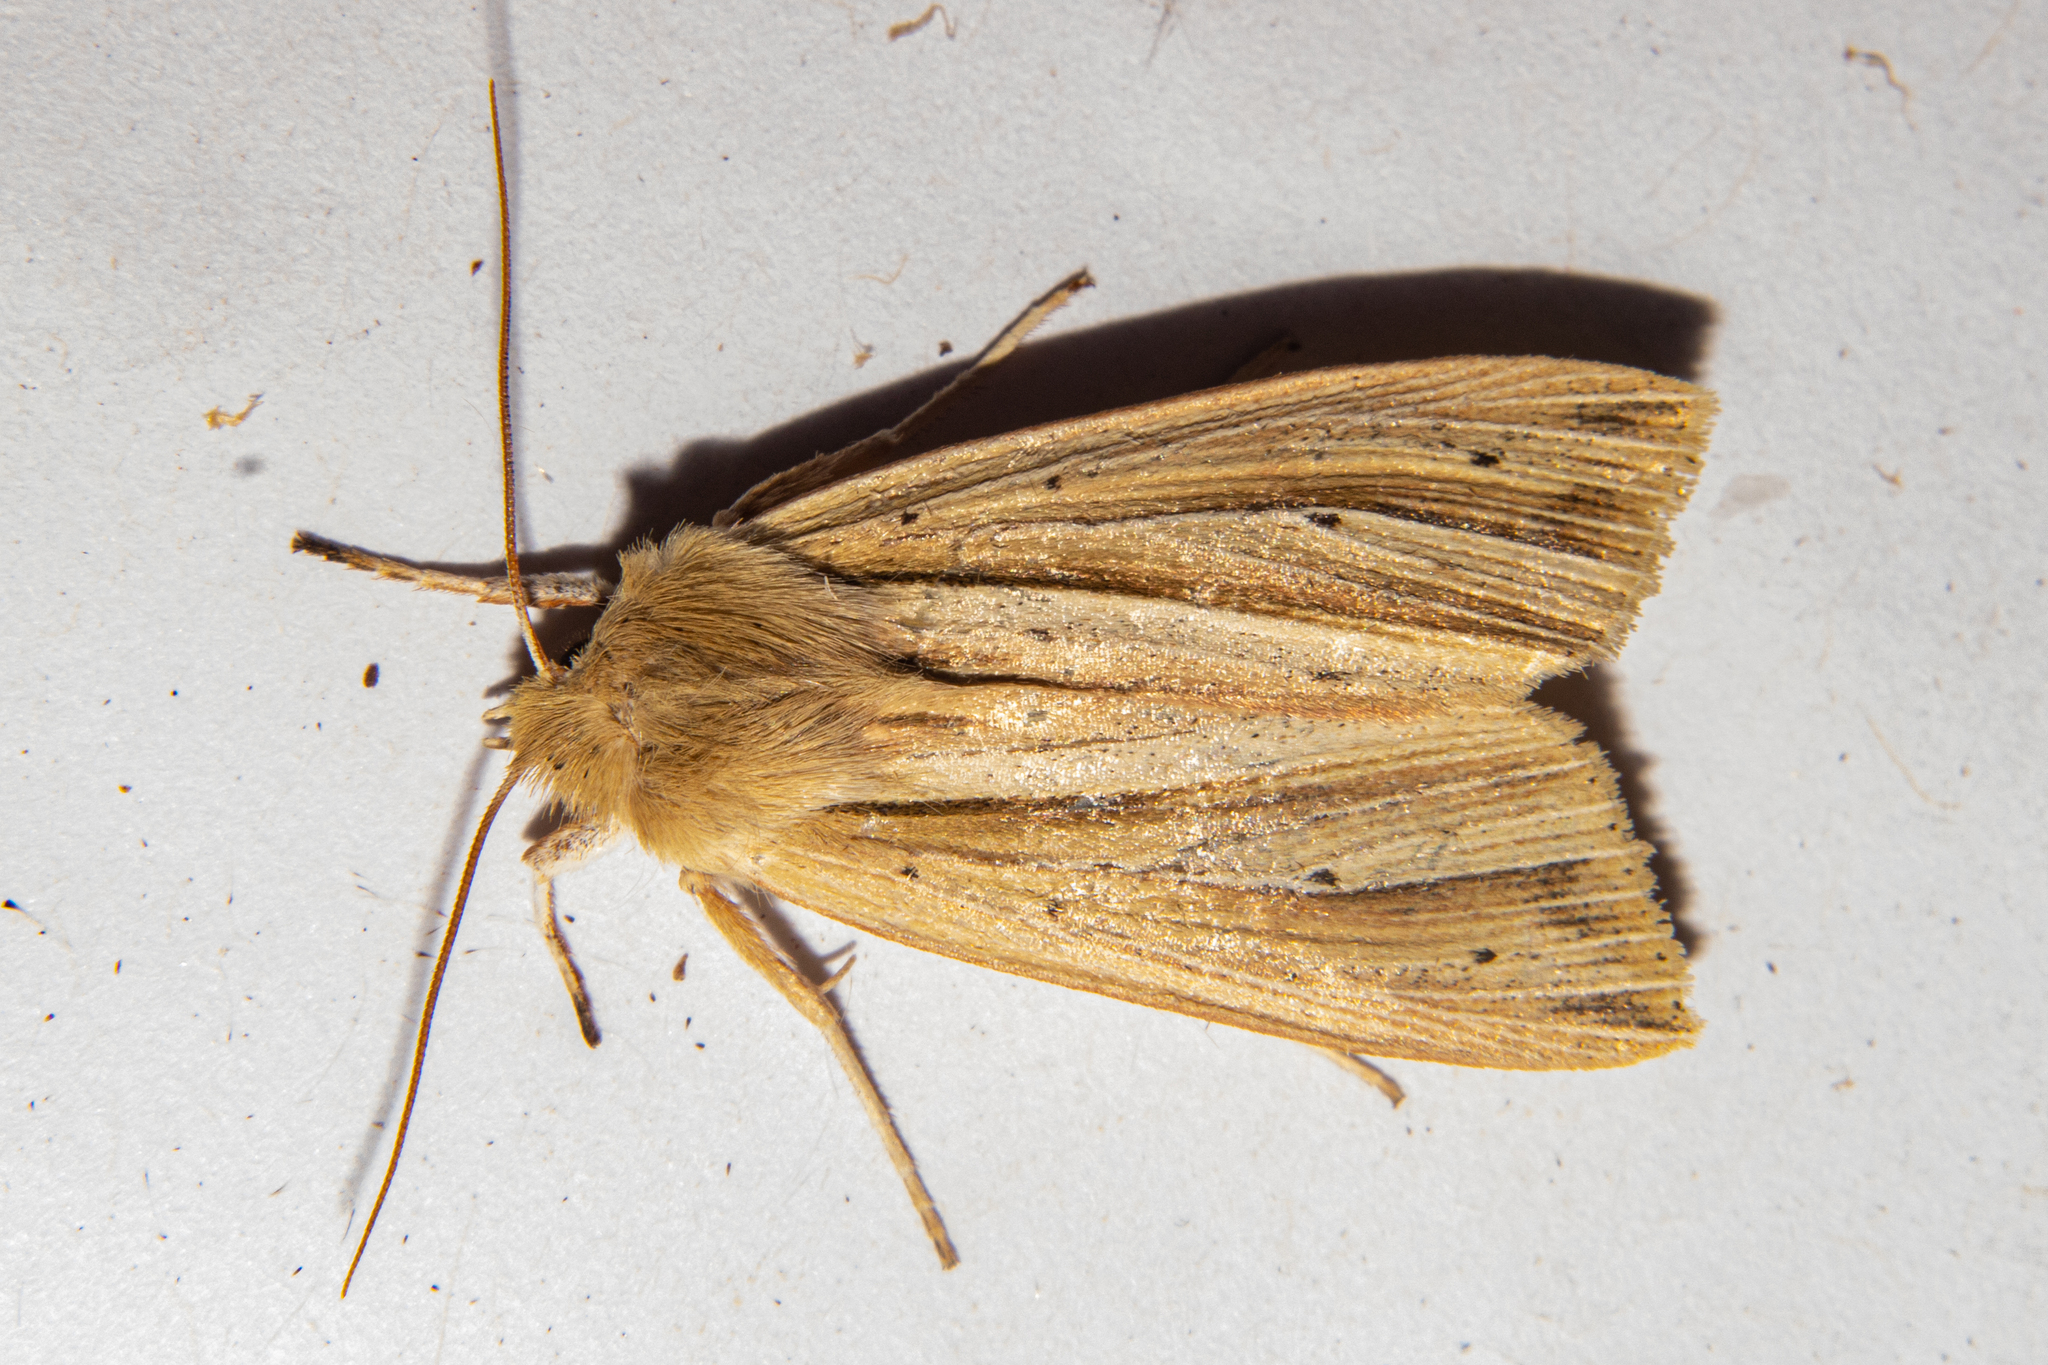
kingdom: Animalia
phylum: Arthropoda
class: Insecta
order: Lepidoptera
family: Noctuidae
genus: Ichneutica
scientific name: Ichneutica sulcana
